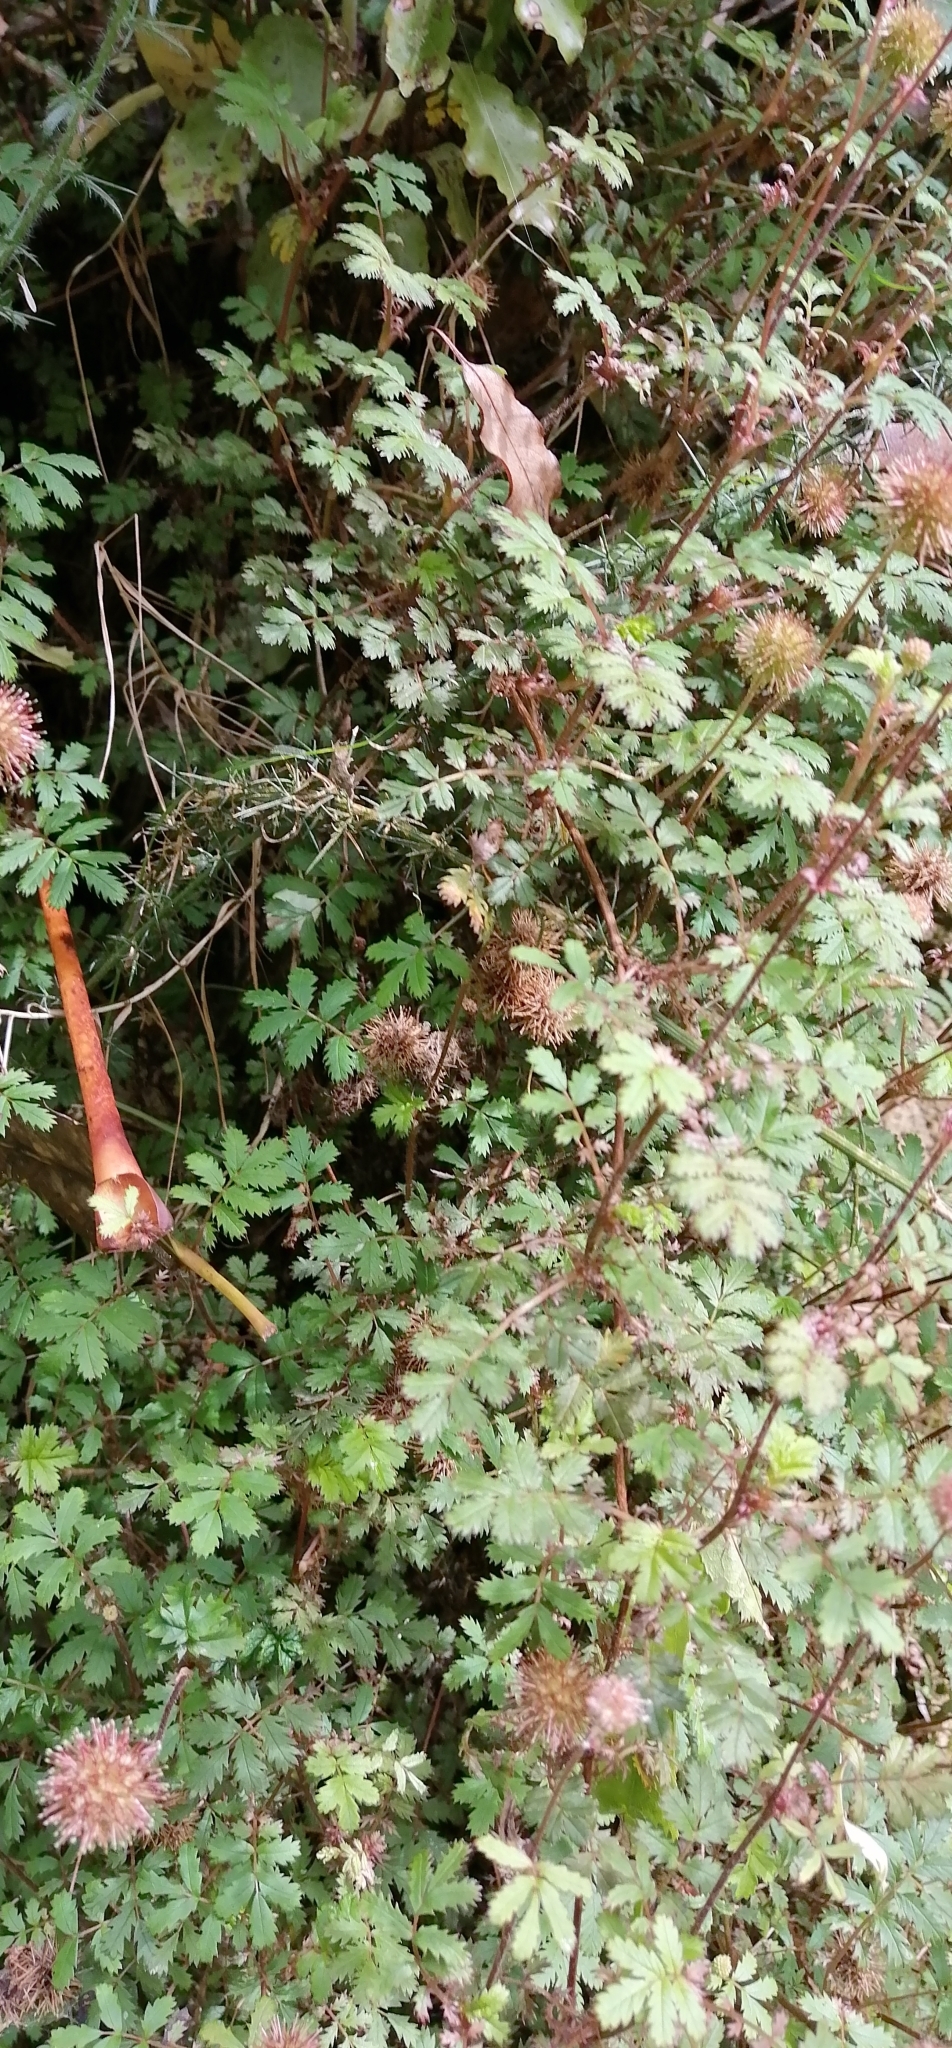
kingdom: Plantae
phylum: Tracheophyta
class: Magnoliopsida
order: Rosales
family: Rosaceae
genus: Acaena
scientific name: Acaena anserinifolia
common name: Bronze pirri-pirri-bur
